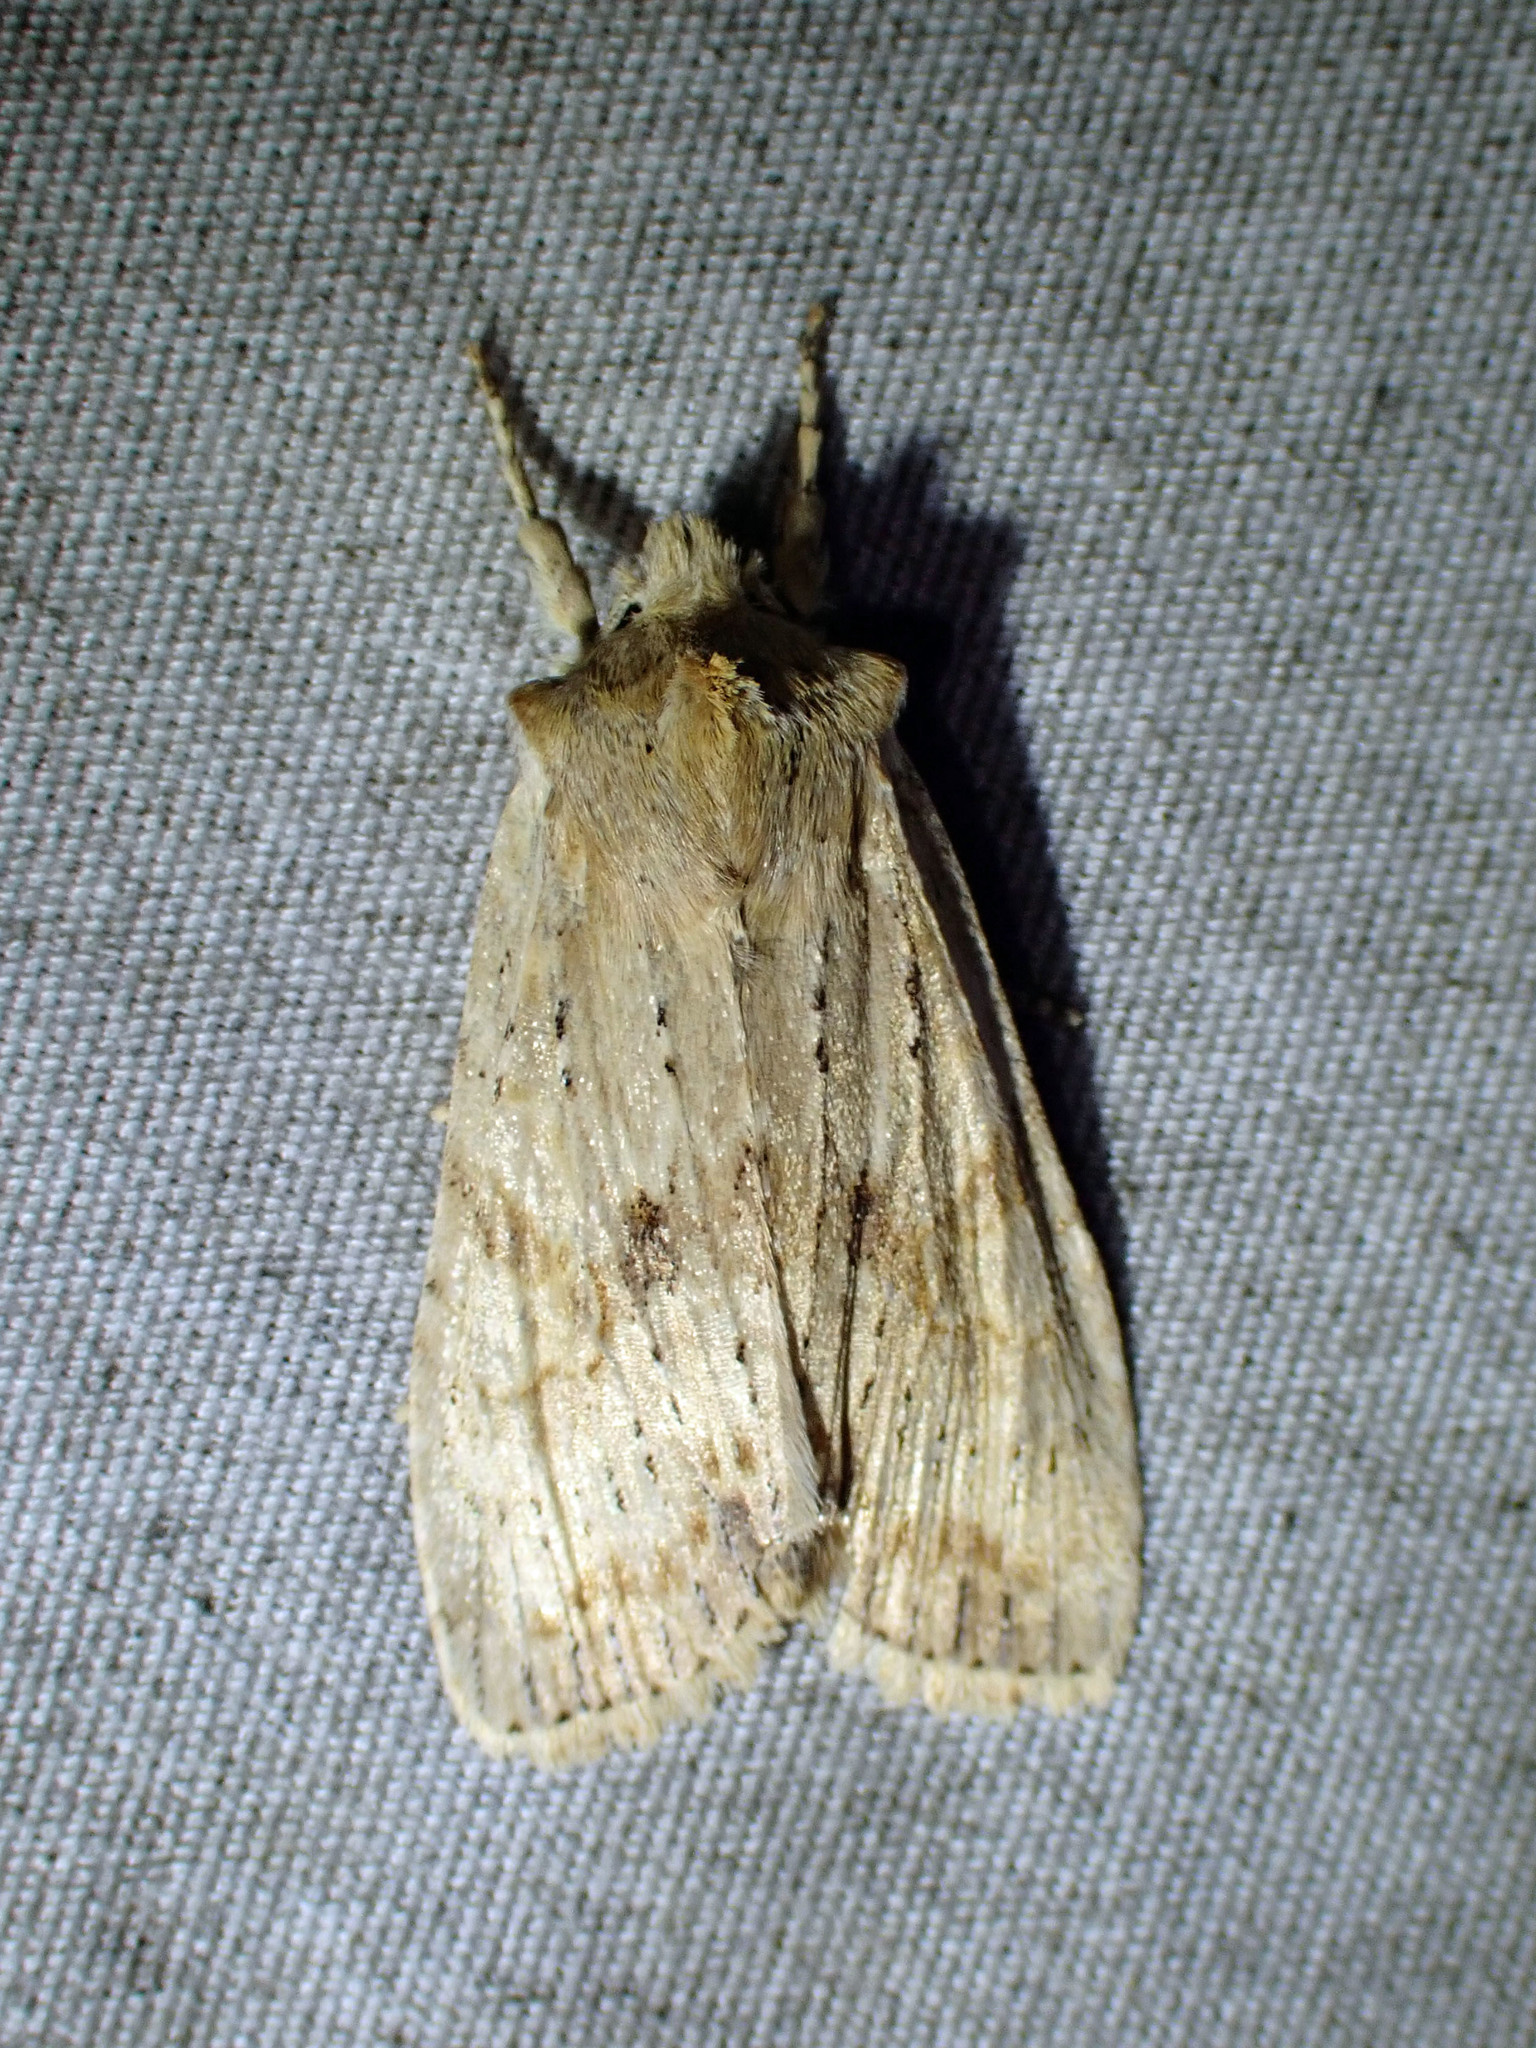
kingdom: Animalia
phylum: Arthropoda
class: Insecta
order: Lepidoptera
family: Noctuidae
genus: Lithophane
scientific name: Lithophane innominata
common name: Nameless pinion moth
